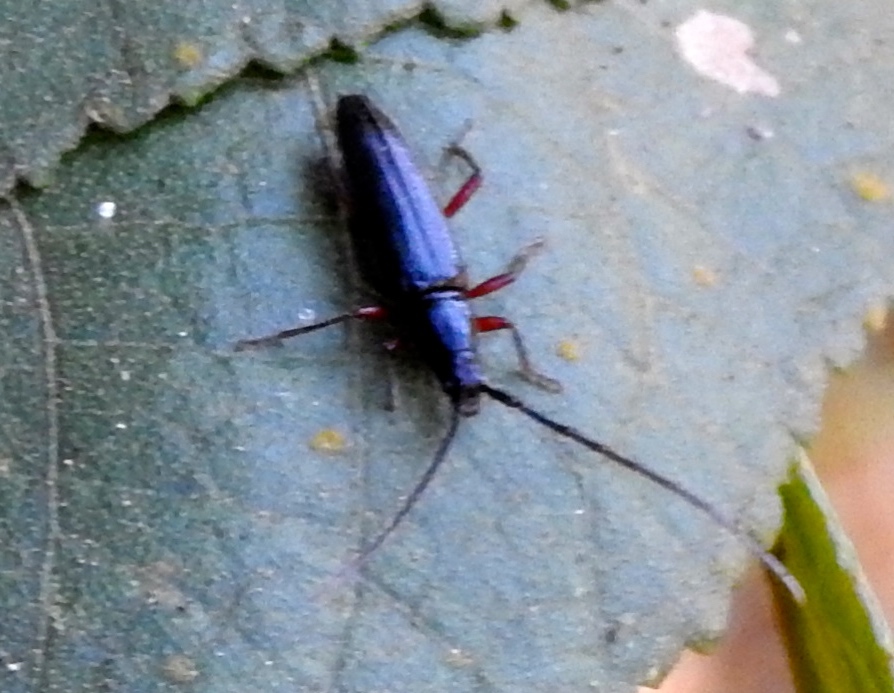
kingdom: Animalia
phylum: Arthropoda
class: Insecta
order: Coleoptera
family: Cerambycidae
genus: Stenosphenus
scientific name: Stenosphenus
